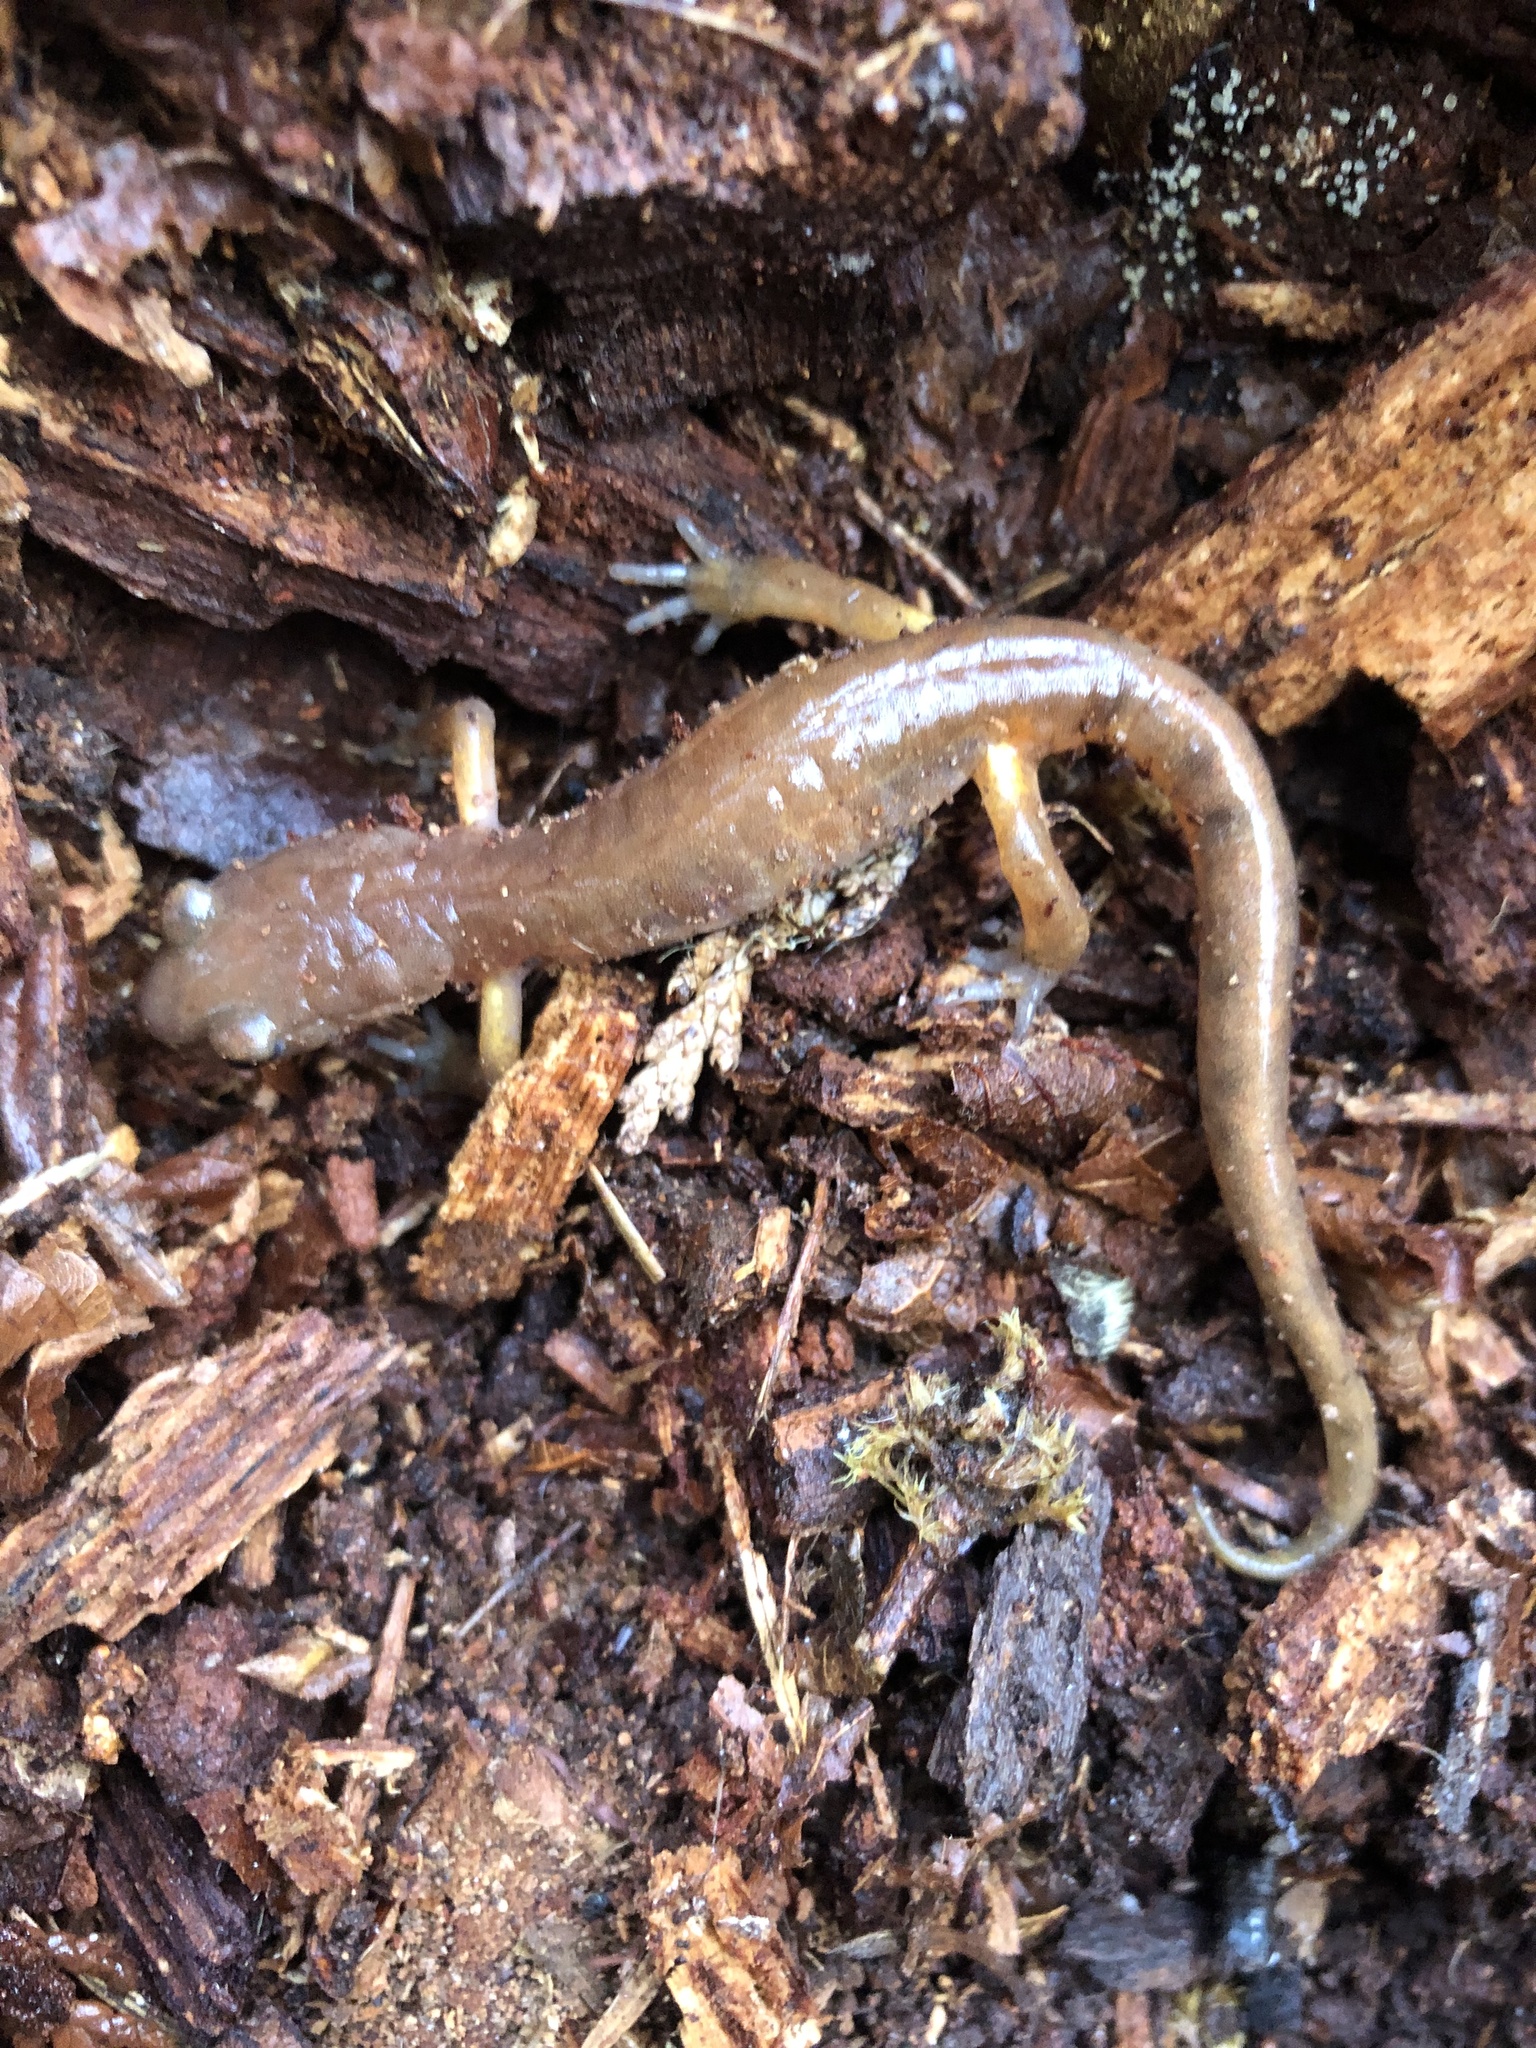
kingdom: Animalia
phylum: Chordata
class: Amphibia
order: Caudata
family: Plethodontidae
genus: Ensatina
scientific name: Ensatina eschscholtzii
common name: Ensatina
